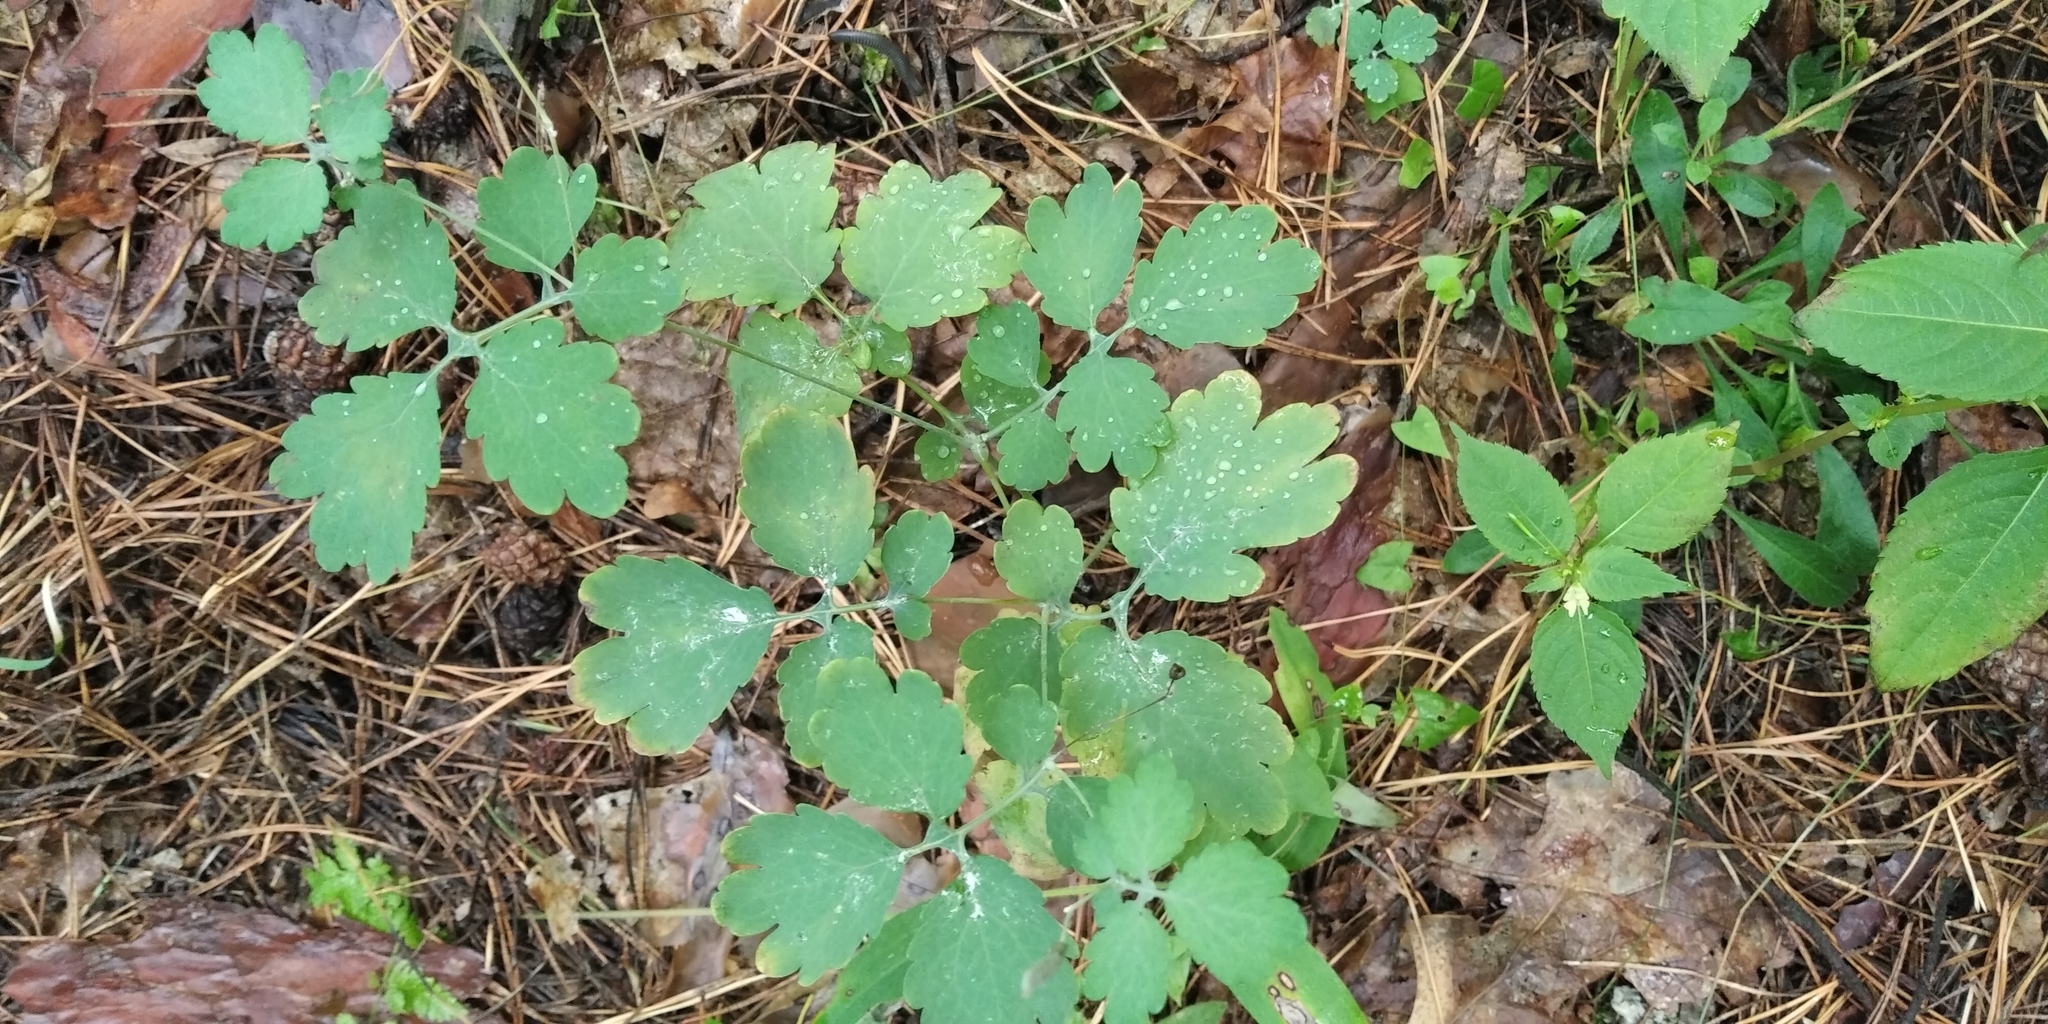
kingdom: Plantae
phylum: Tracheophyta
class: Magnoliopsida
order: Ranunculales
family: Papaveraceae
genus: Chelidonium
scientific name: Chelidonium majus
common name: Greater celandine
